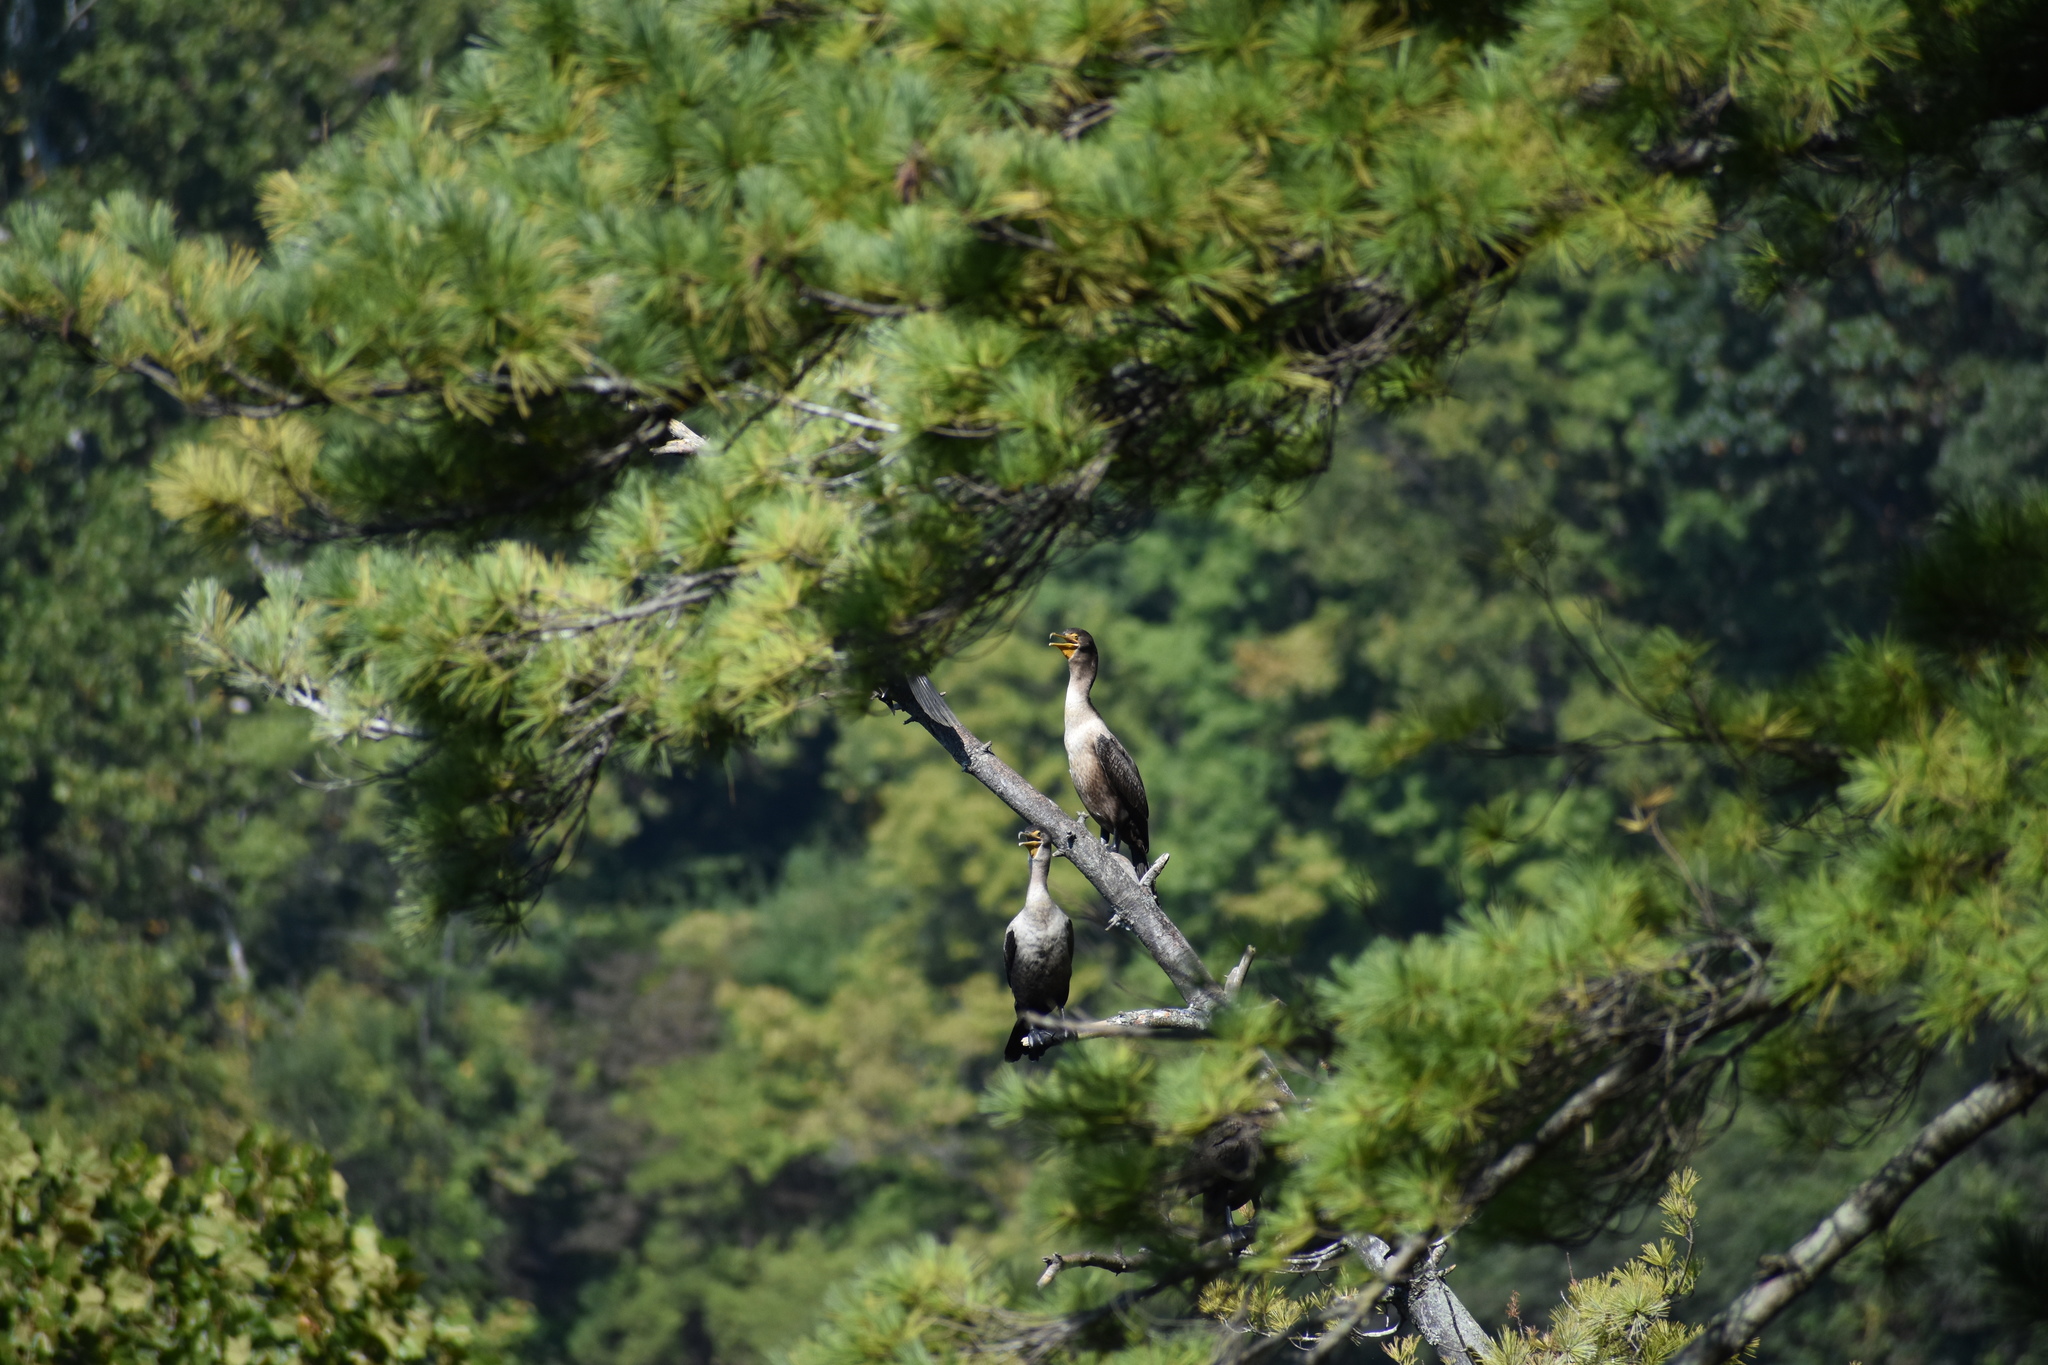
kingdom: Animalia
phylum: Chordata
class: Aves
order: Suliformes
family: Phalacrocoracidae
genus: Phalacrocorax
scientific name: Phalacrocorax auritus
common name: Double-crested cormorant
